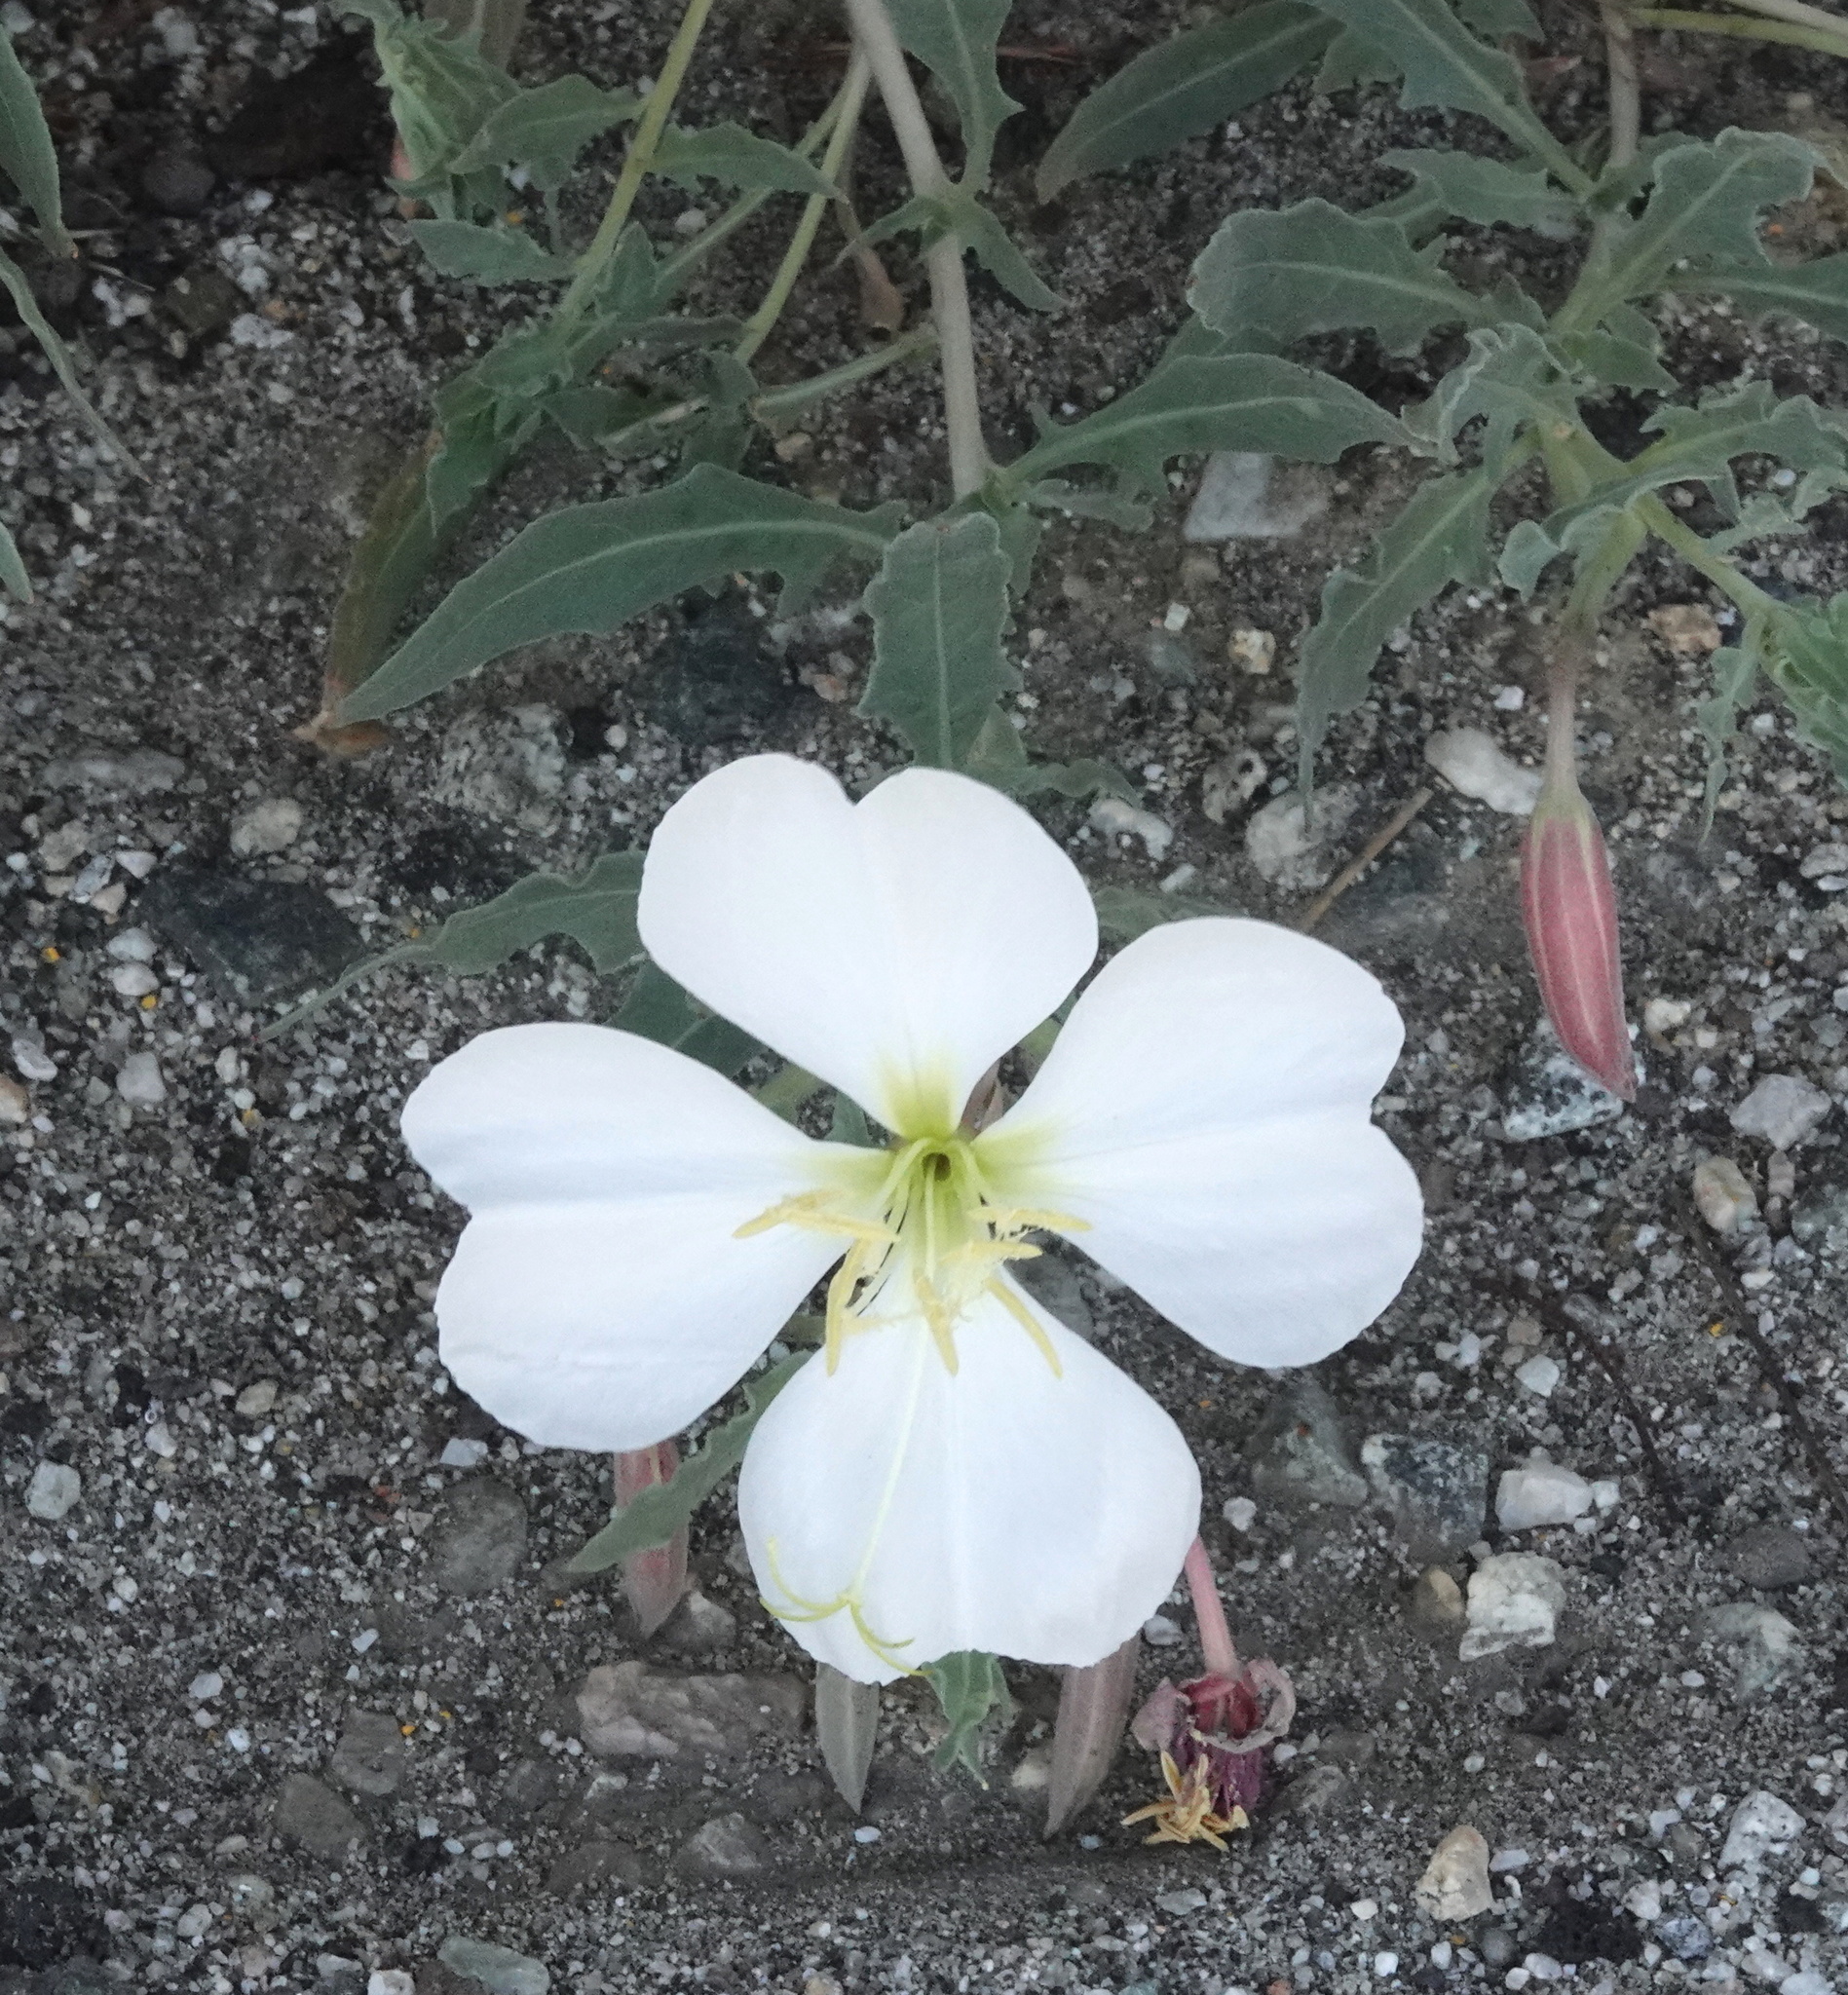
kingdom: Plantae
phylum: Tracheophyta
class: Magnoliopsida
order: Myrtales
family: Onagraceae
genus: Oenothera
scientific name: Oenothera californica
